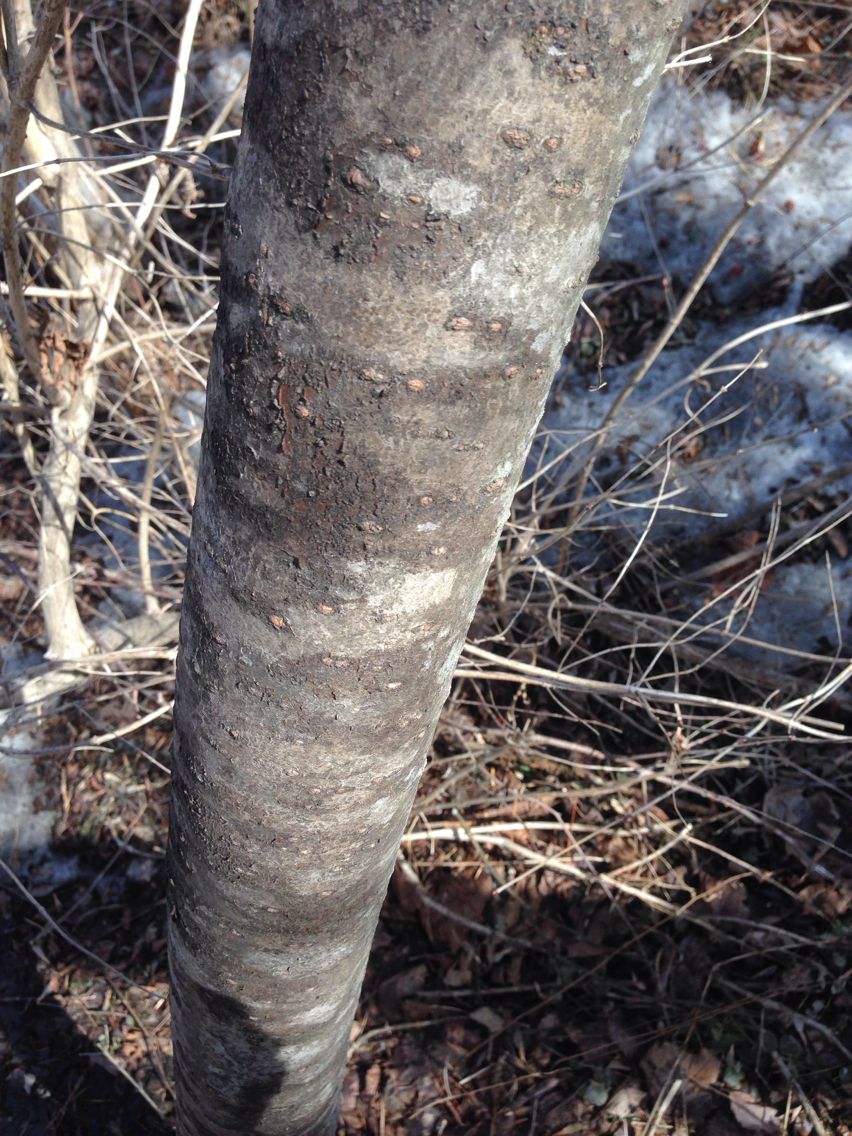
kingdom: Plantae
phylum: Tracheophyta
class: Magnoliopsida
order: Rosales
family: Rosaceae
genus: Prunus
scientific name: Prunus pensylvanica
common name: Pin cherry
